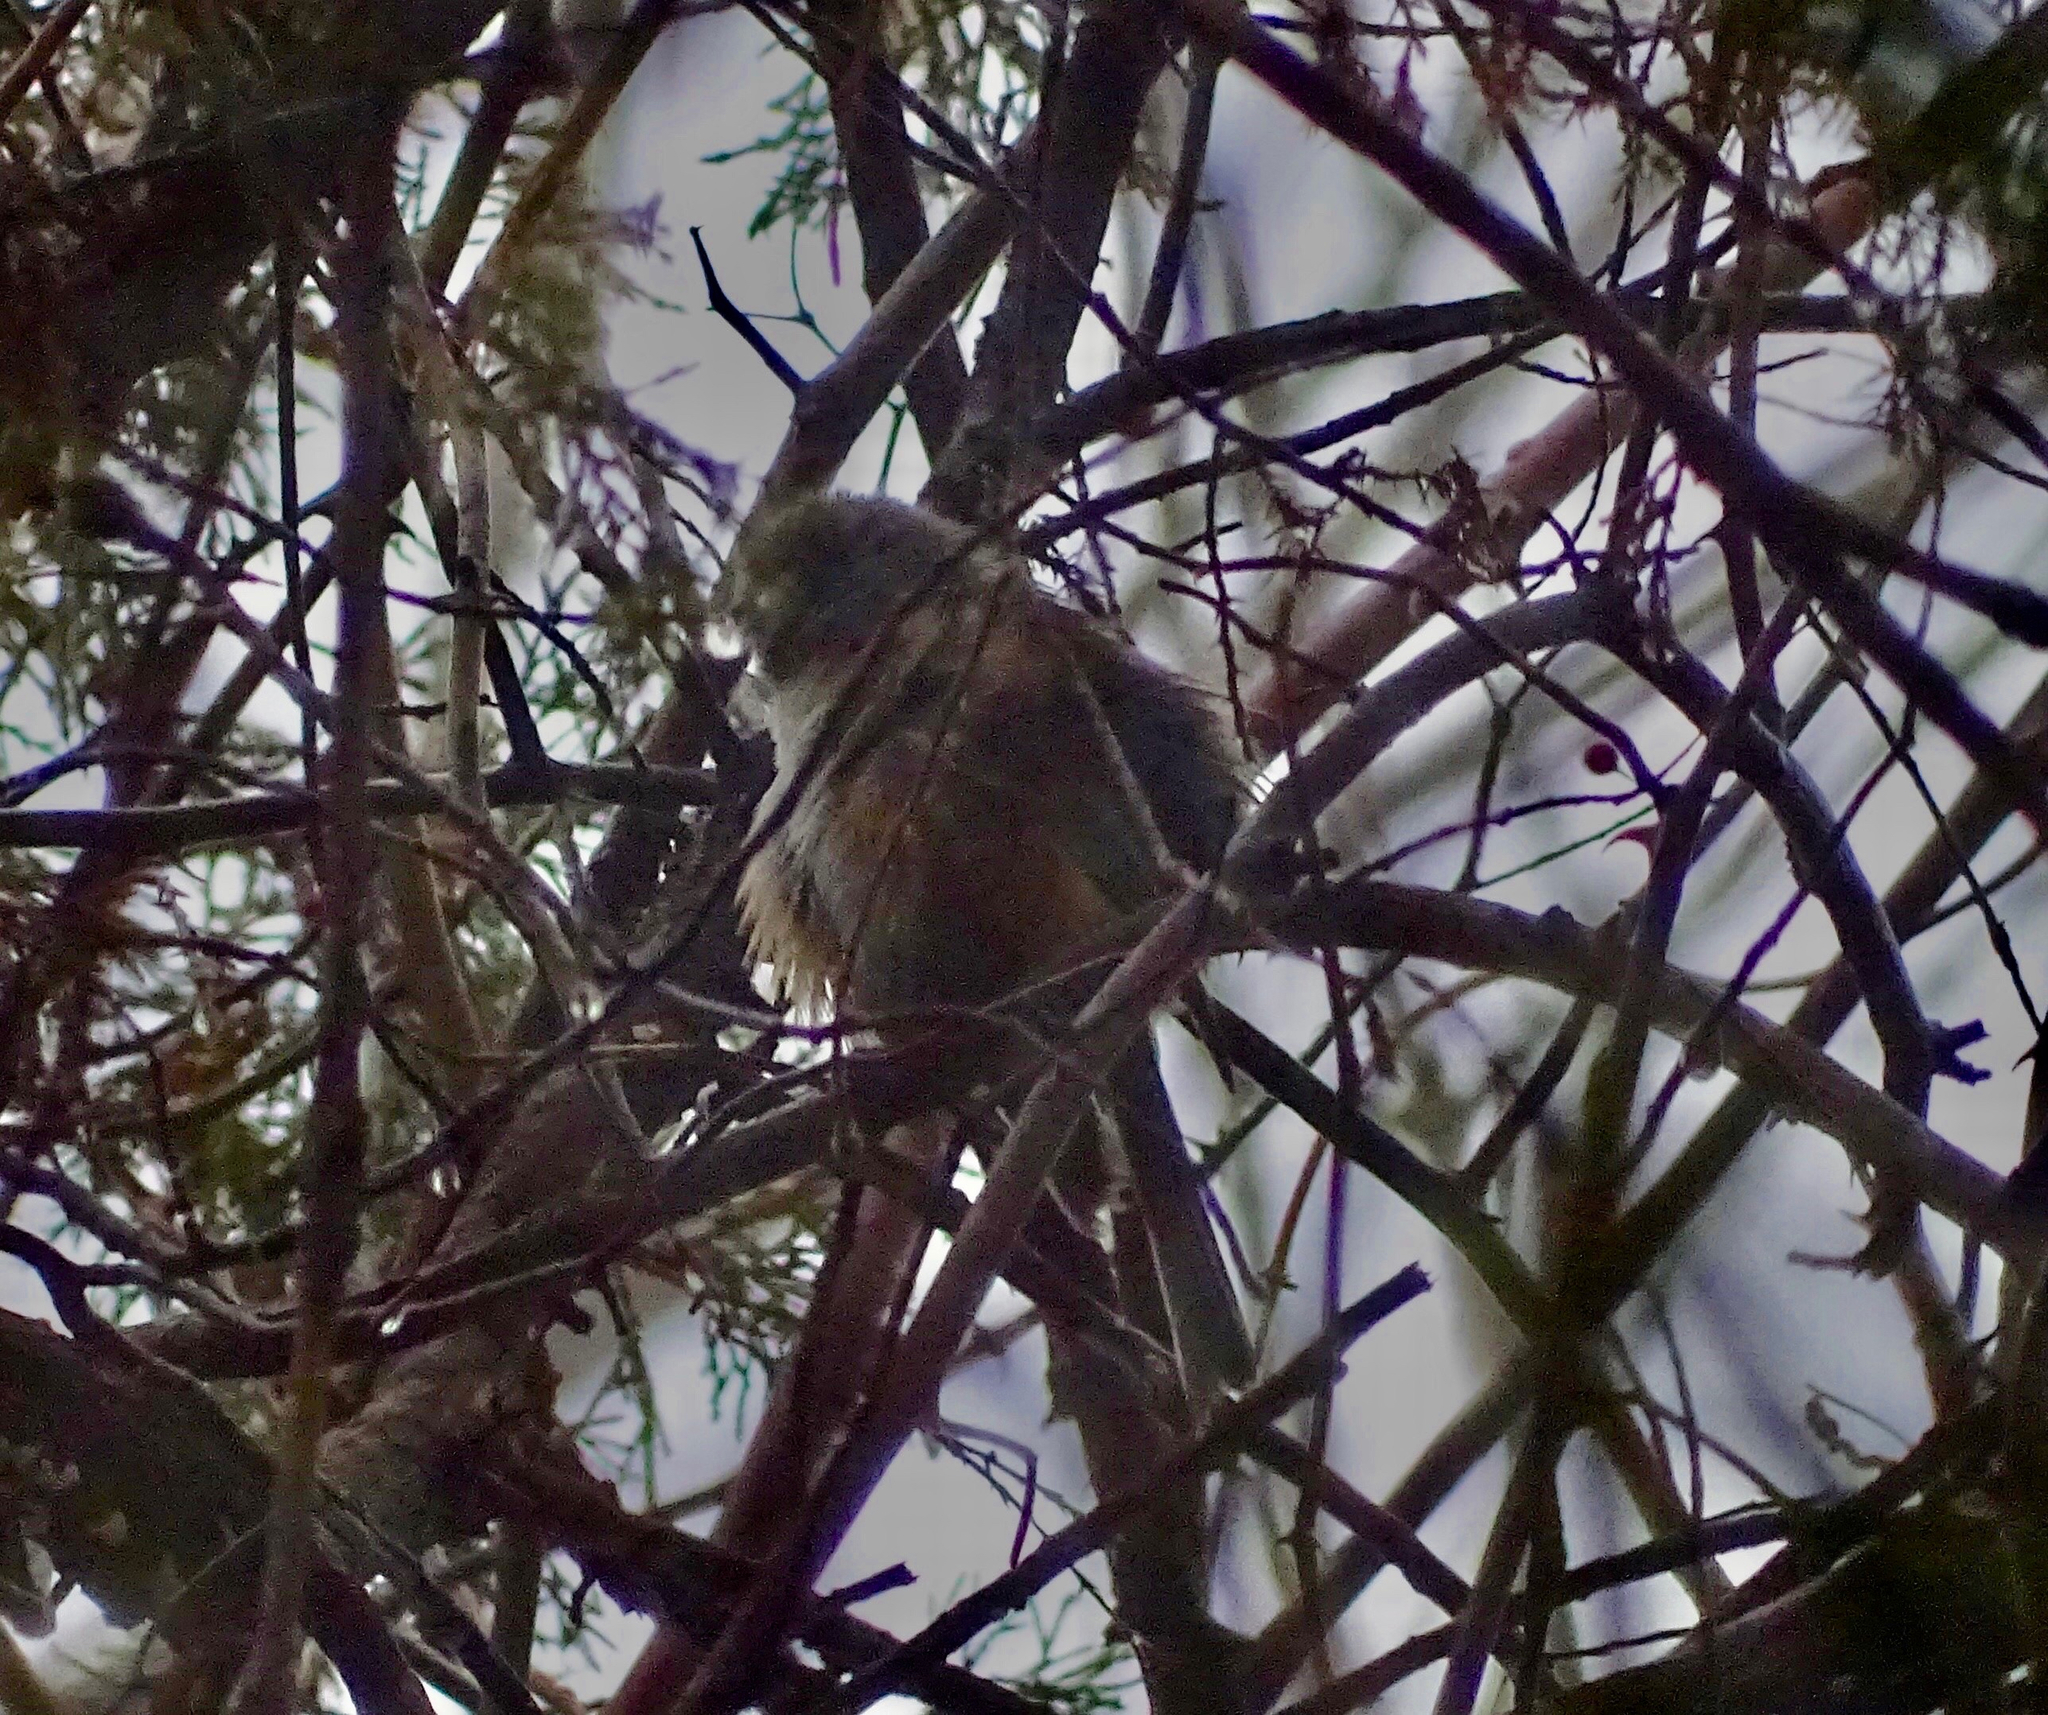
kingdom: Animalia
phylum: Chordata
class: Aves
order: Passeriformes
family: Paridae
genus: Poecile
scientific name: Poecile hudsonicus
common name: Boreal chickadee
